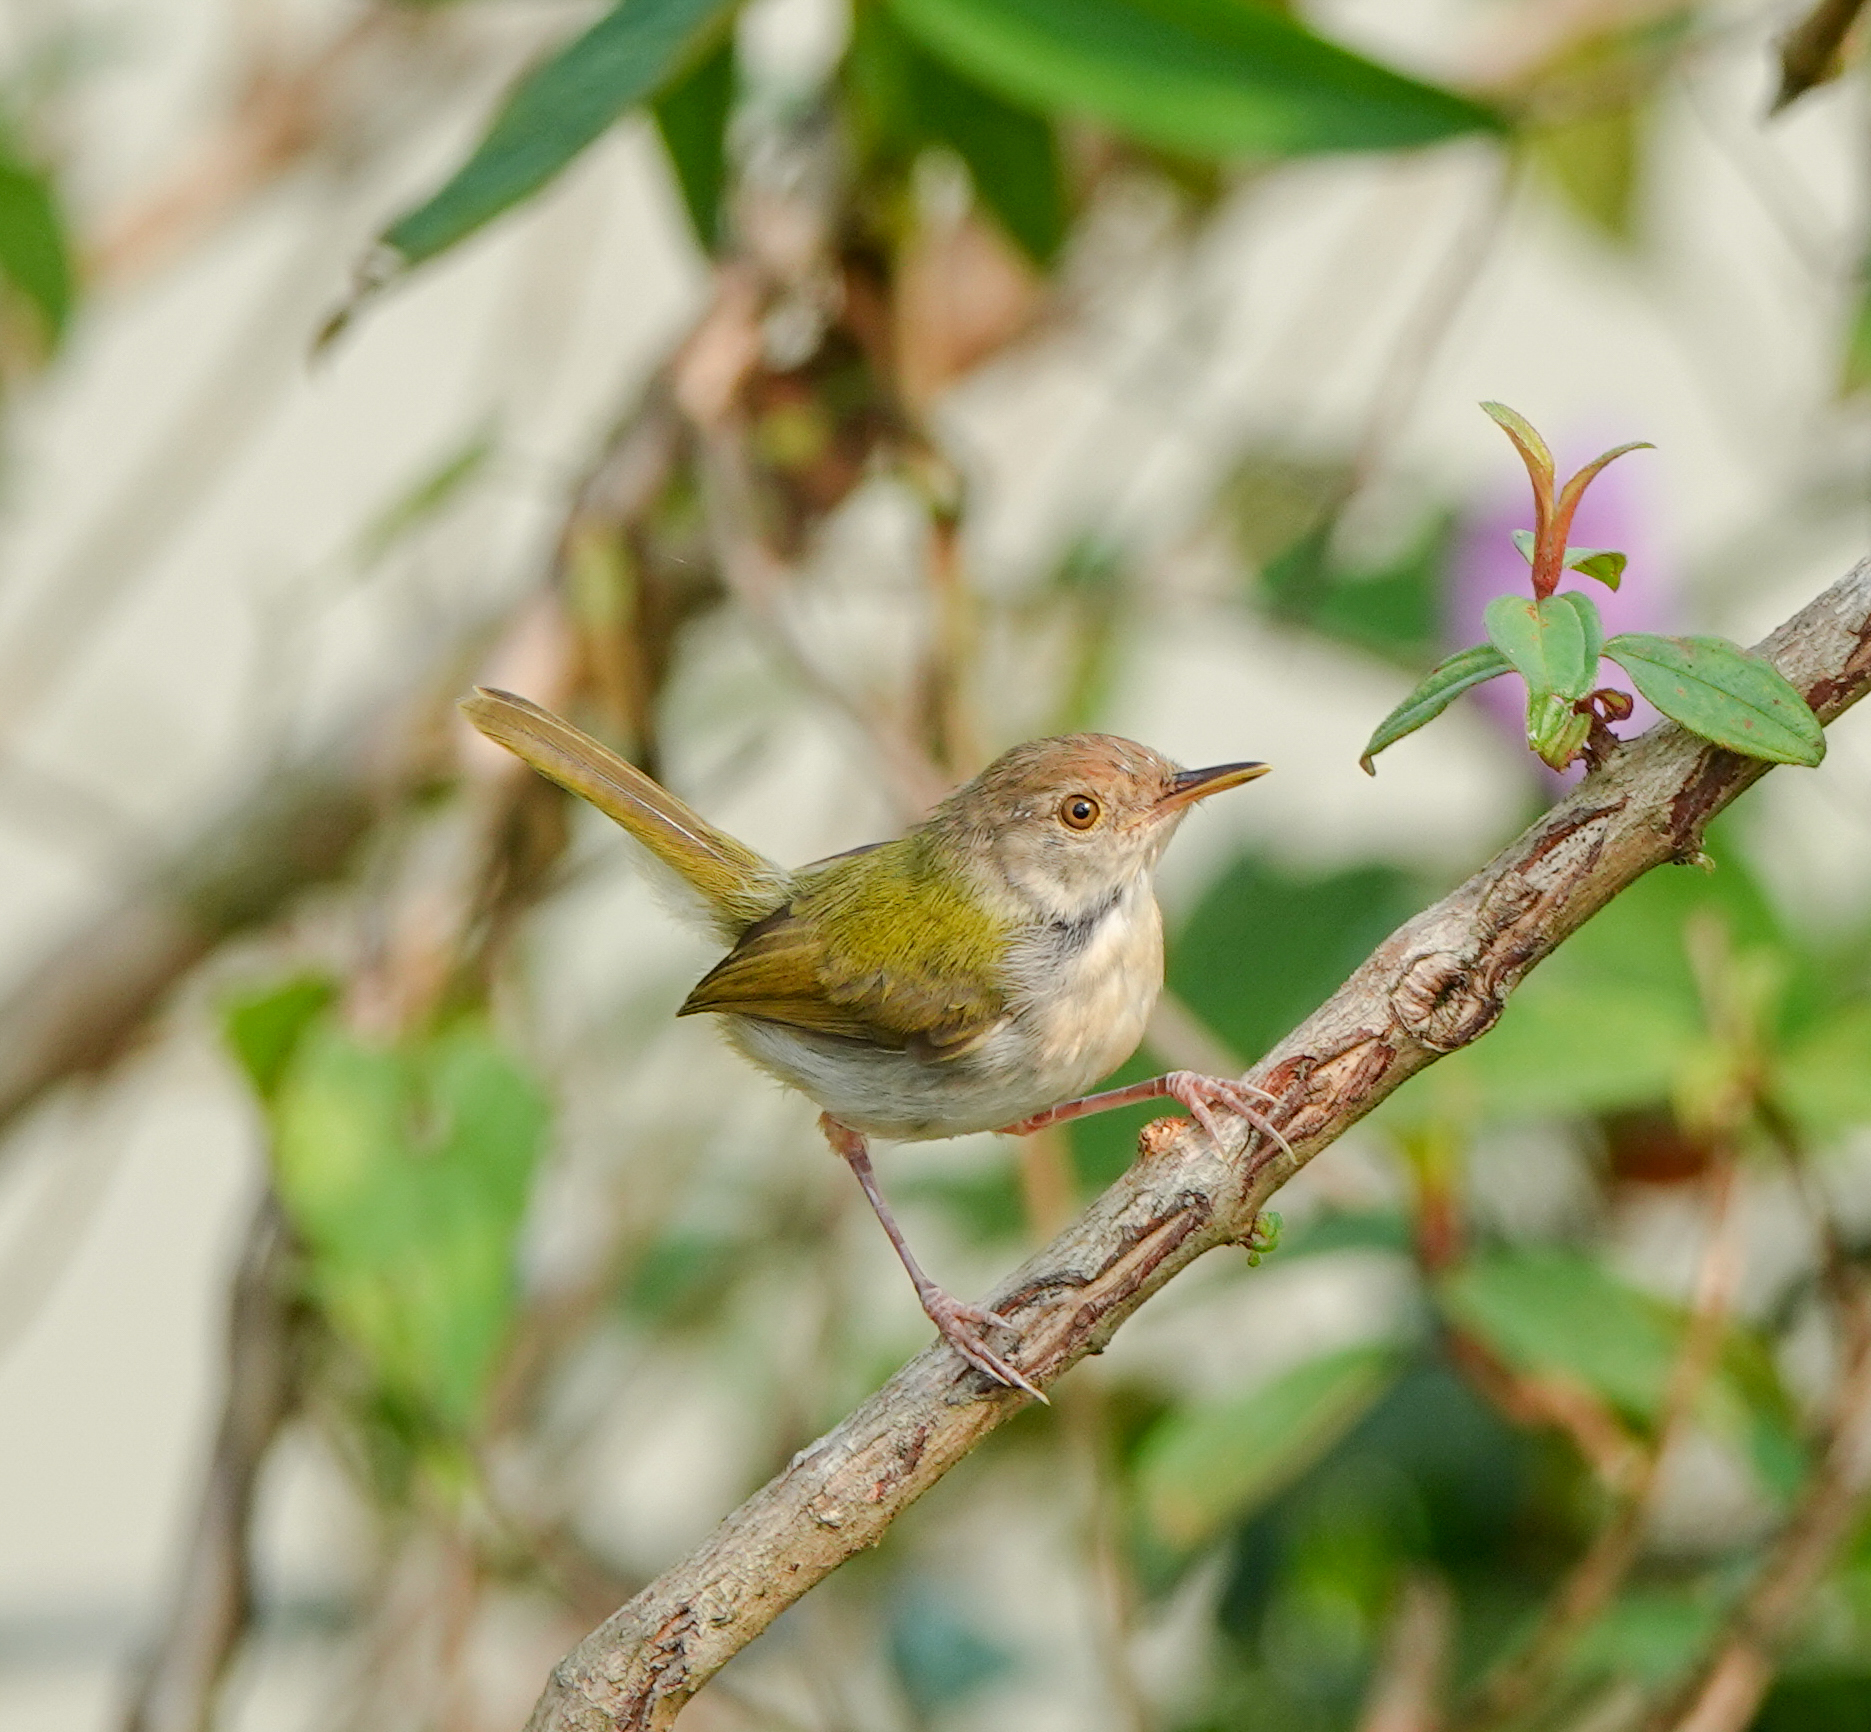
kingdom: Animalia
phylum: Chordata
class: Aves
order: Passeriformes
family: Cisticolidae
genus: Orthotomus
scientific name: Orthotomus sutorius
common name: Common tailorbird
